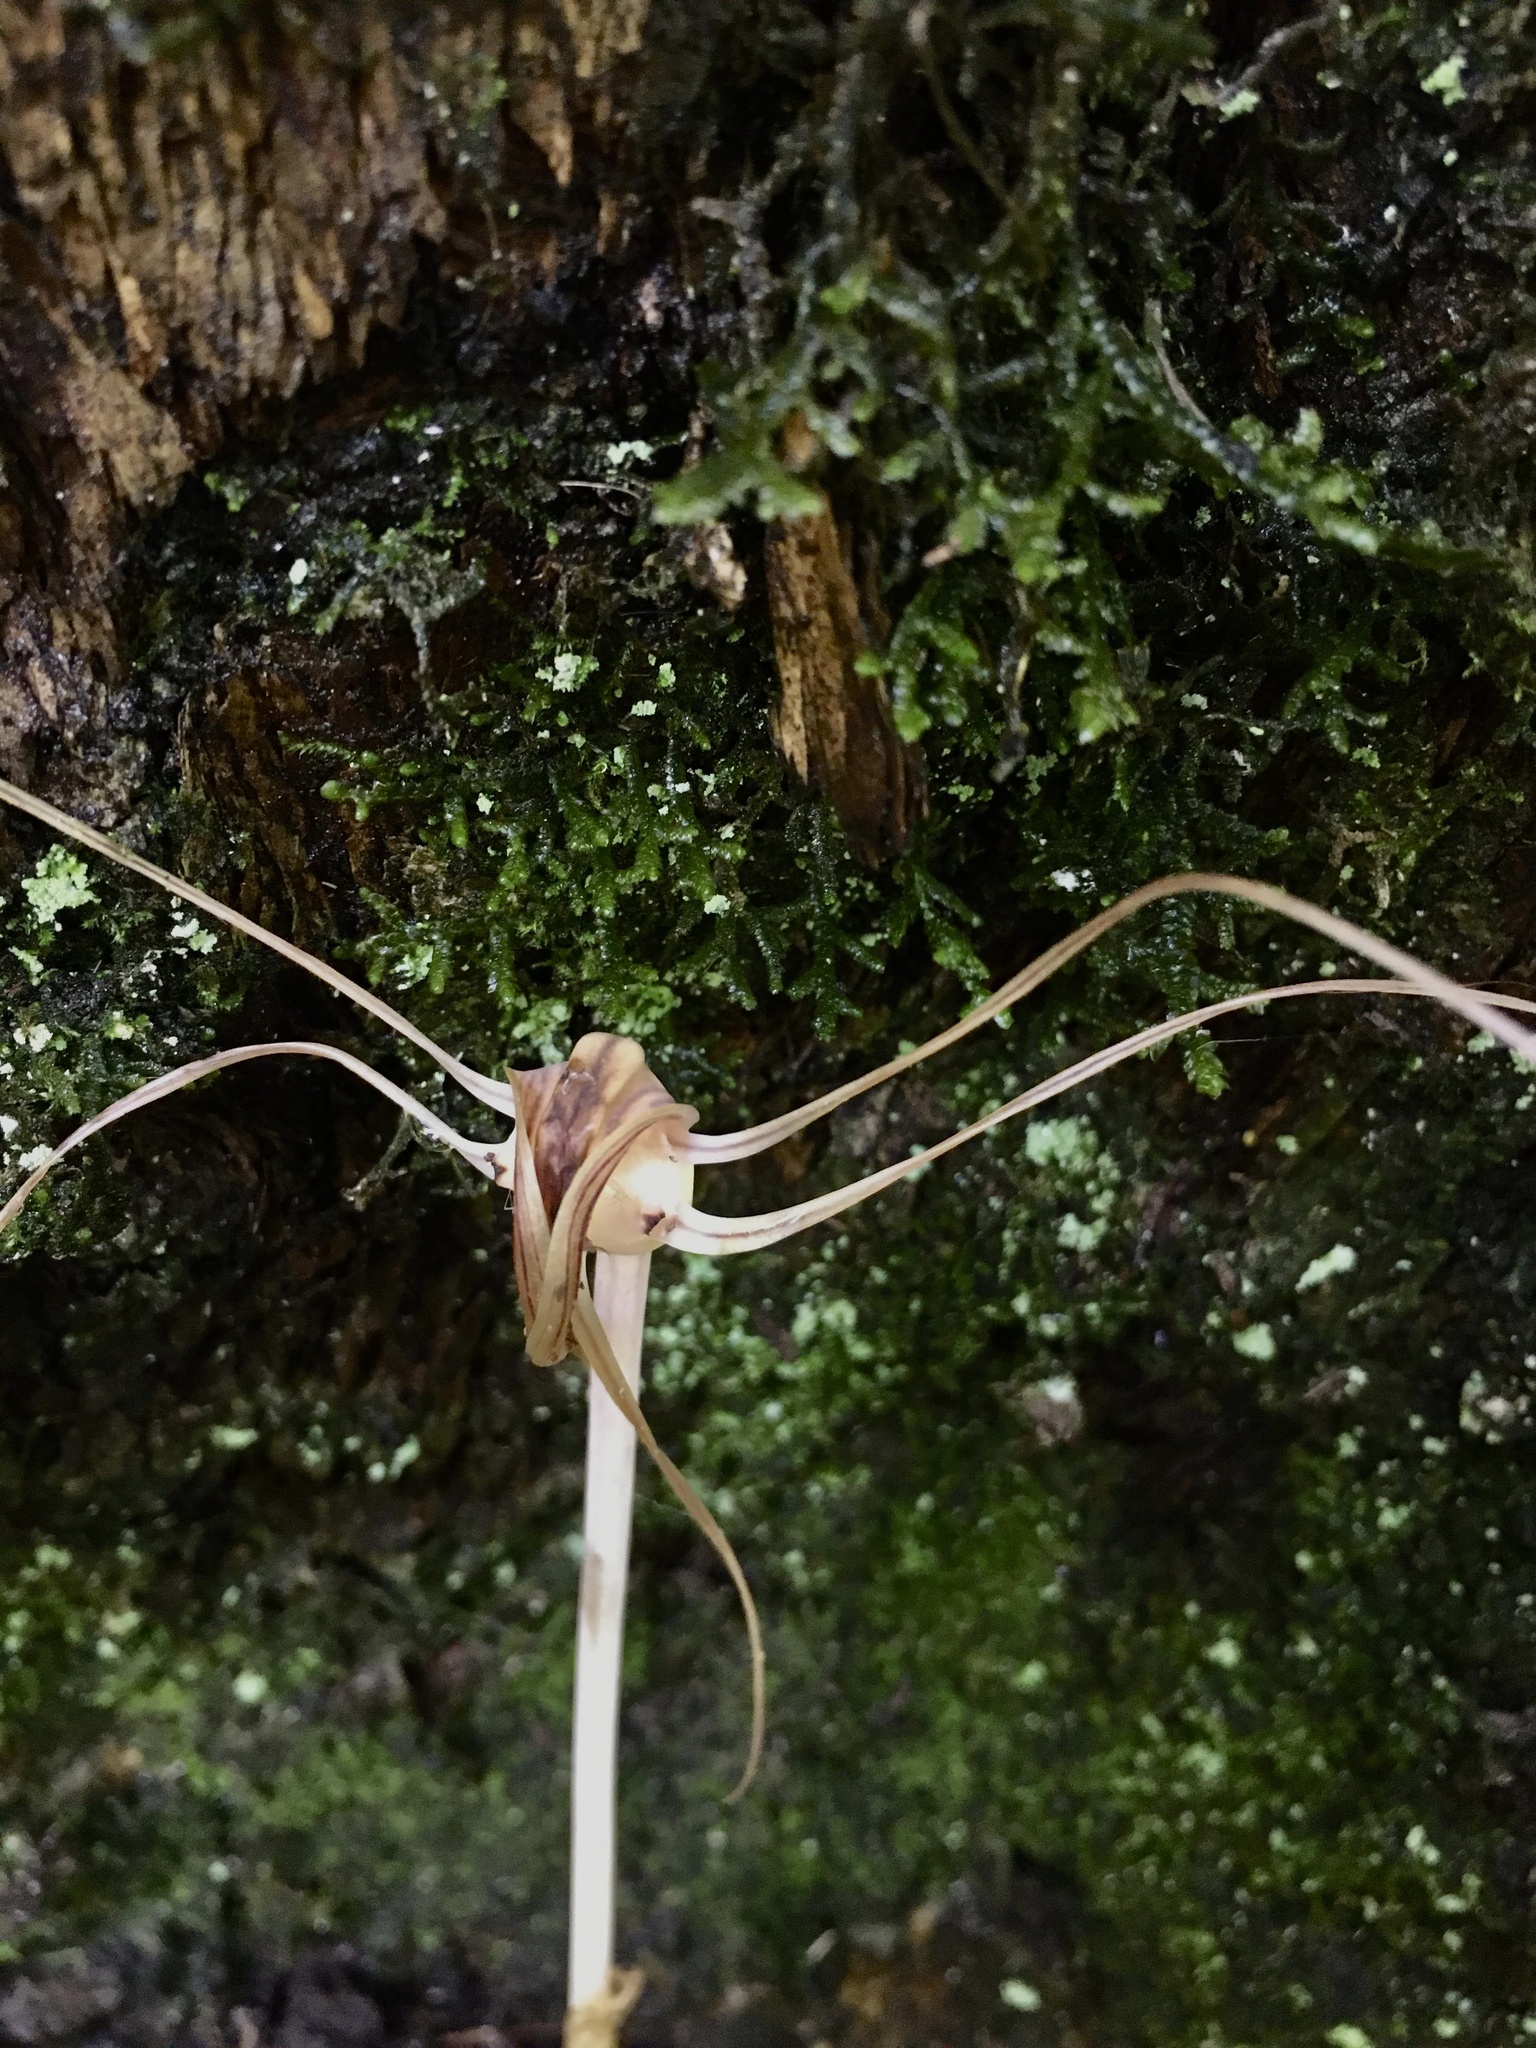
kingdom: Plantae
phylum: Tracheophyta
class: Liliopsida
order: Liliales
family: Corsiaceae
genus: Arachnitis
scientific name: Arachnitis uniflora
